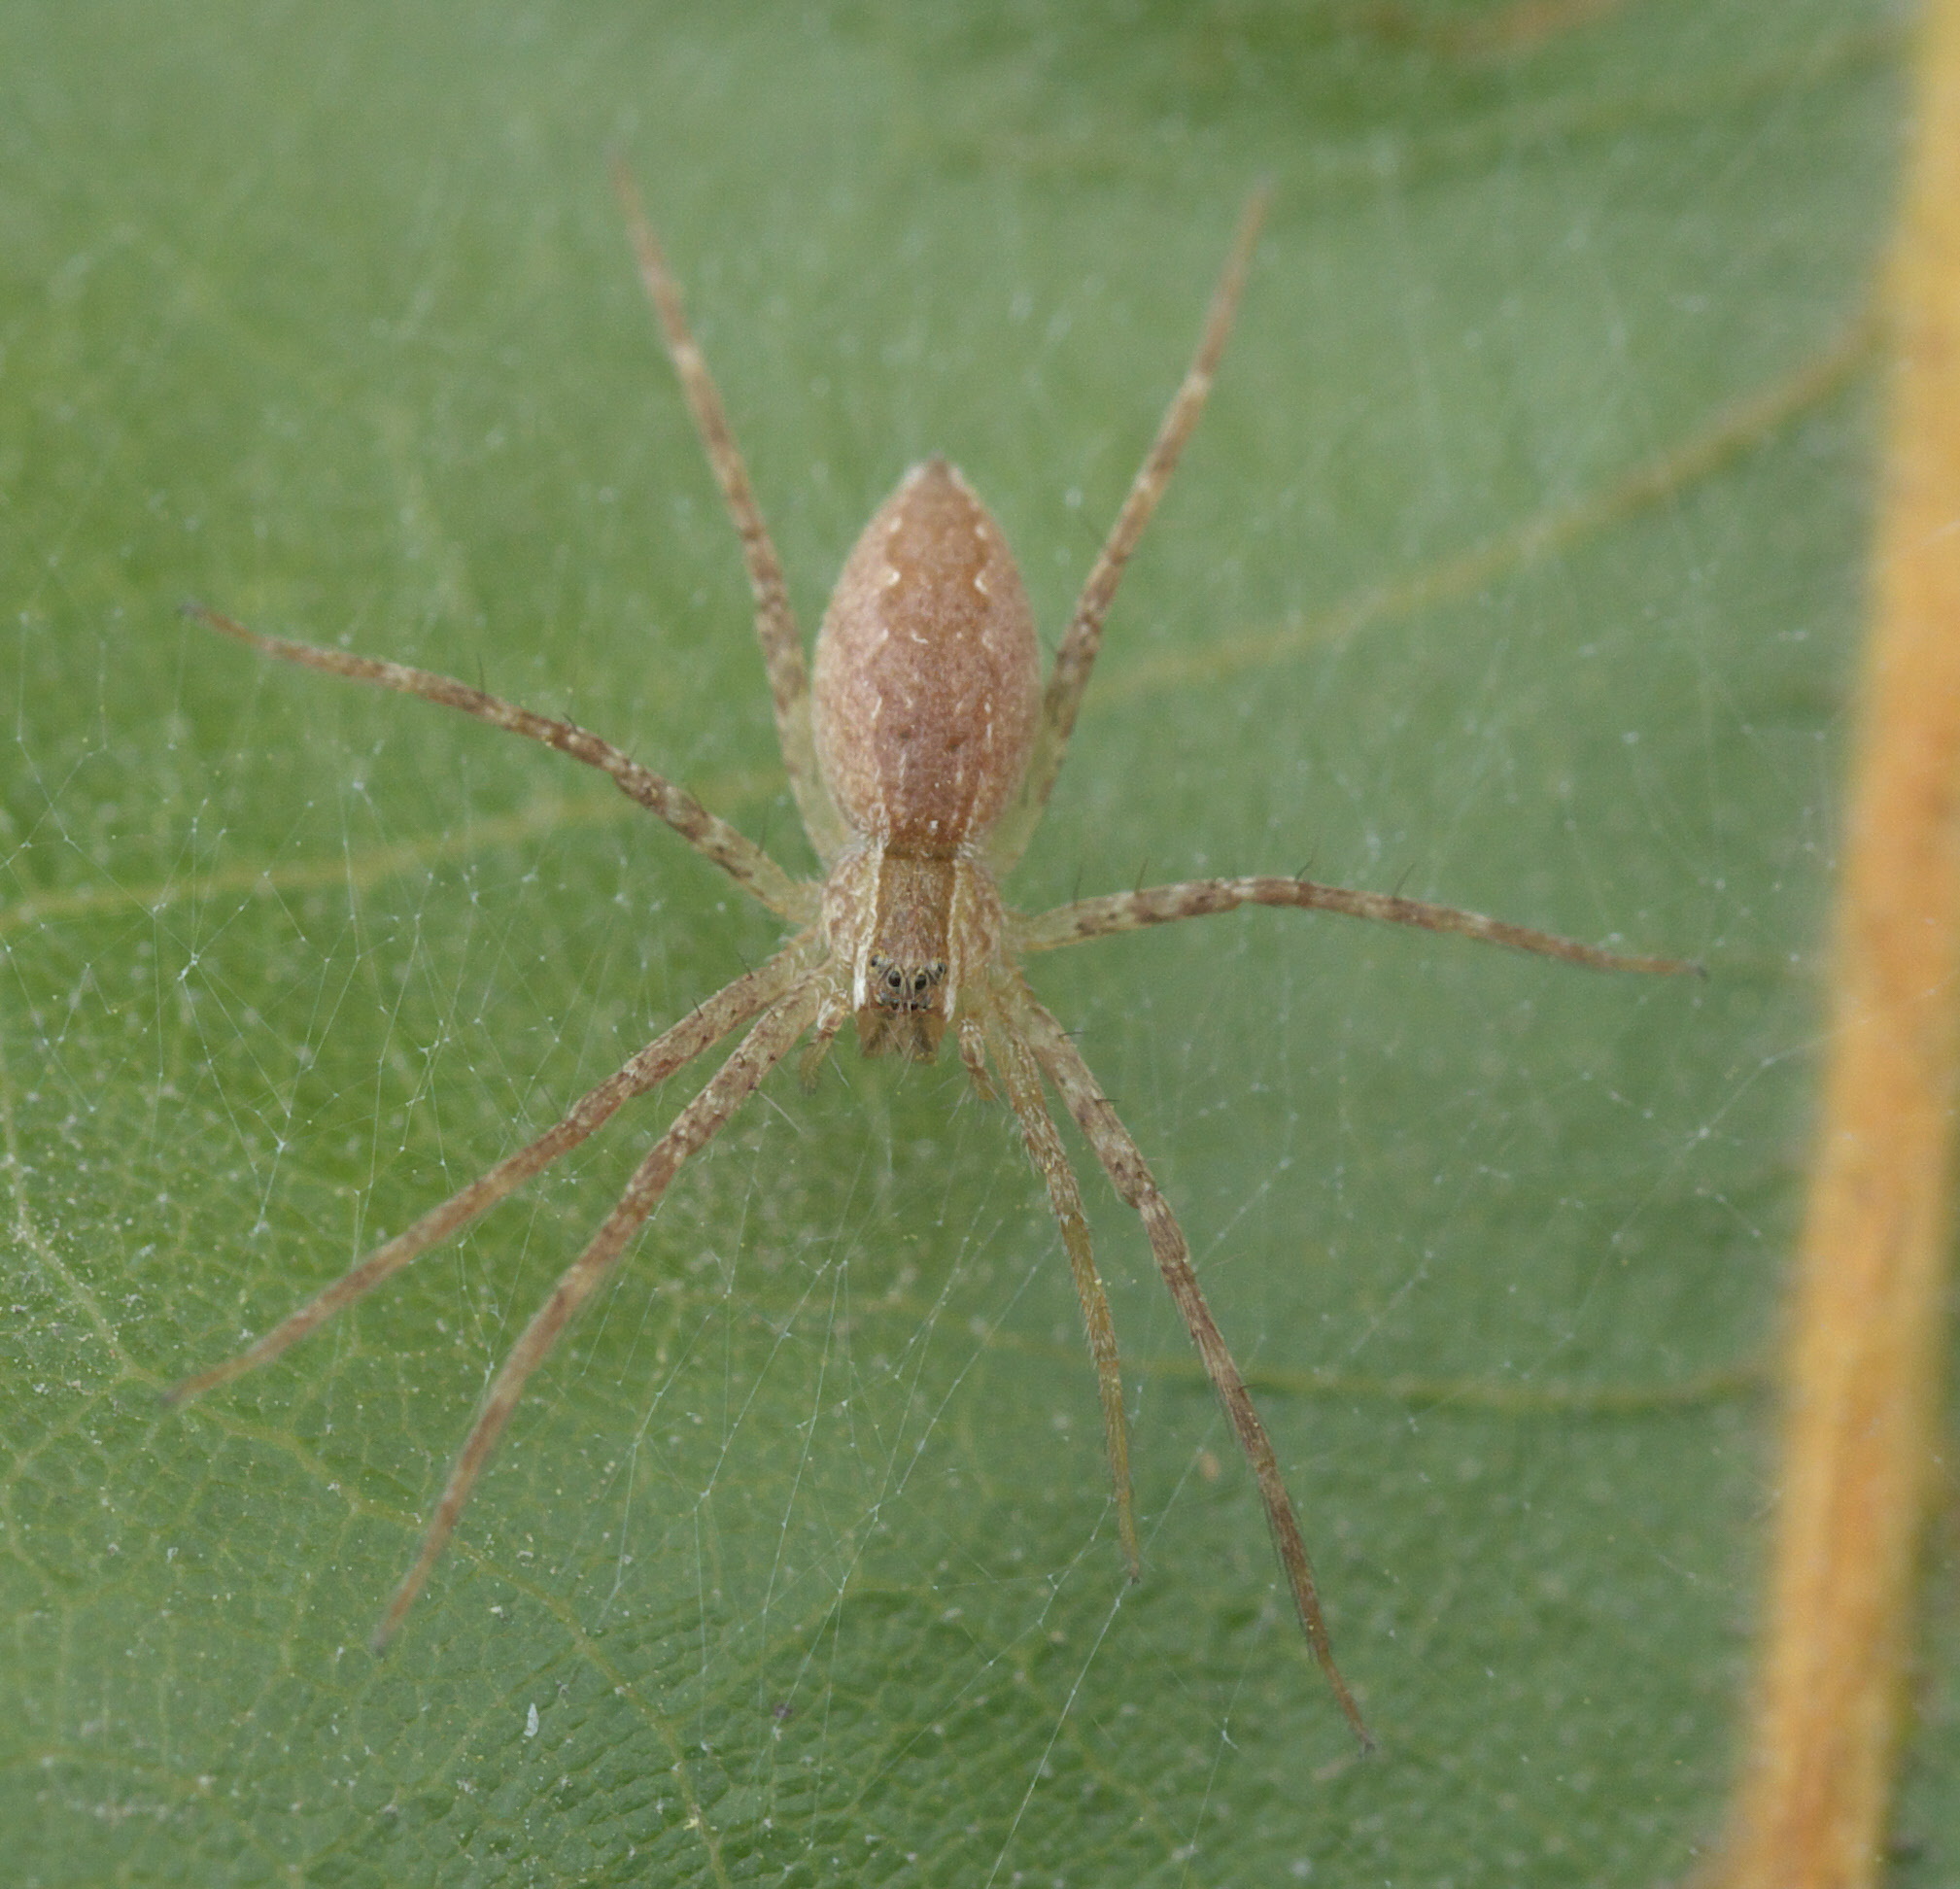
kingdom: Animalia
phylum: Arthropoda
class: Arachnida
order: Araneae
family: Pisauridae
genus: Pisaurina
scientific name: Pisaurina mira
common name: American nursery web spider
